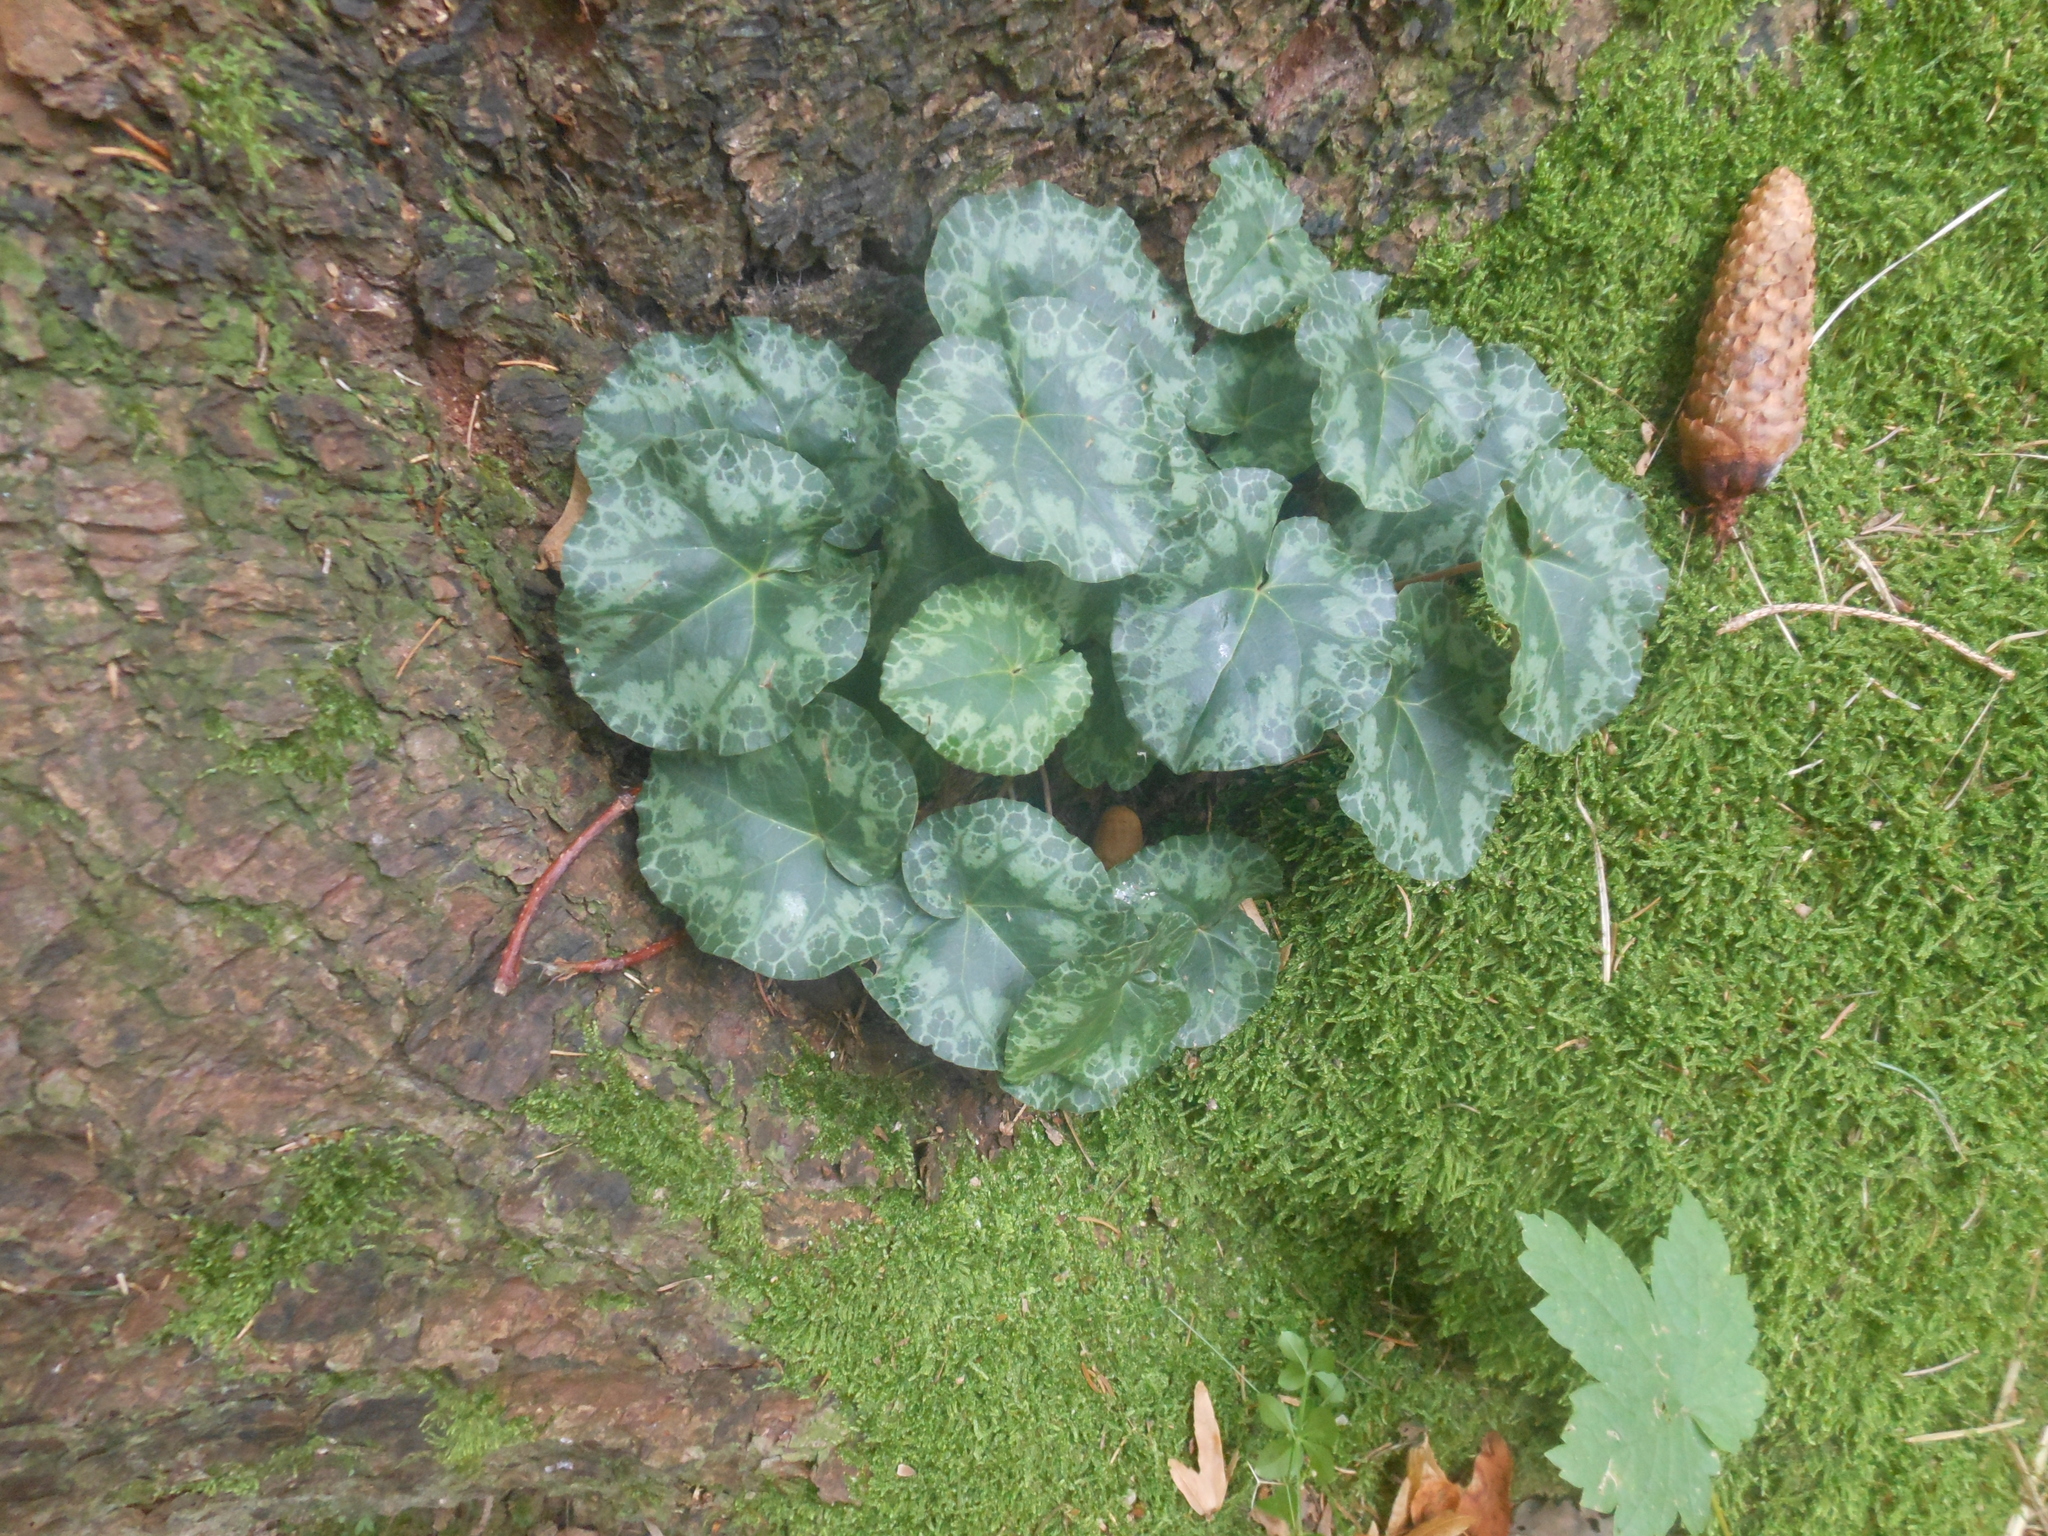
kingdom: Plantae
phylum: Tracheophyta
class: Magnoliopsida
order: Ericales
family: Primulaceae
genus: Cyclamen
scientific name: Cyclamen purpurascens
